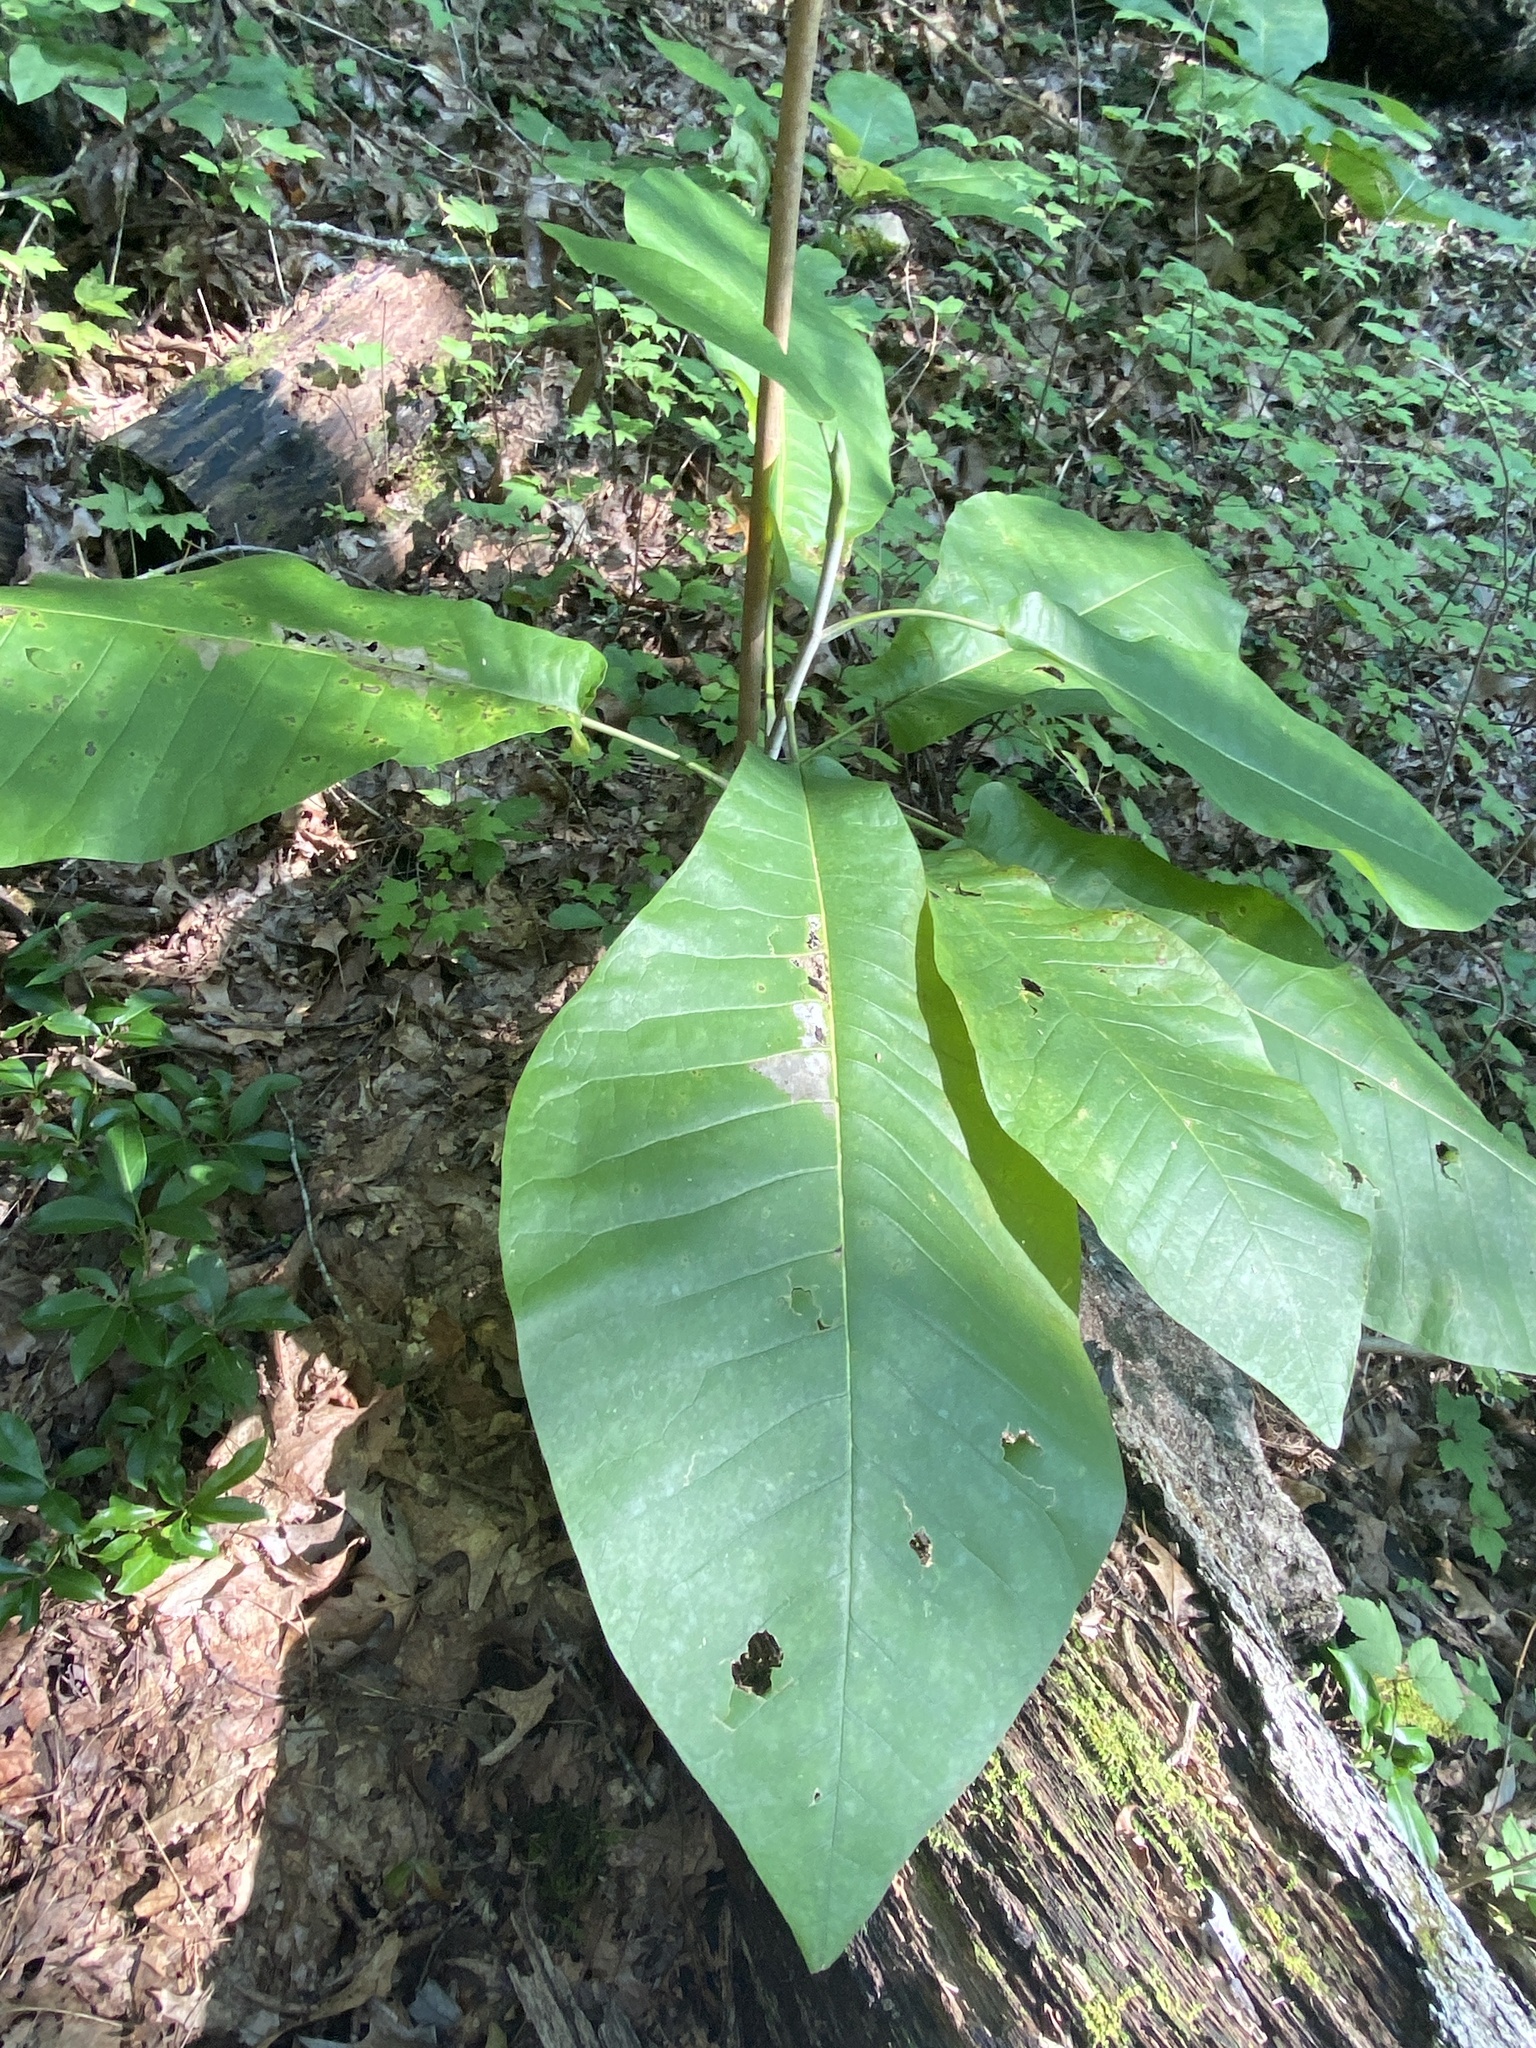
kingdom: Plantae
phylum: Tracheophyta
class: Magnoliopsida
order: Magnoliales
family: Magnoliaceae
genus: Magnolia
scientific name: Magnolia macrophylla
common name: Big-leaf magnolia
